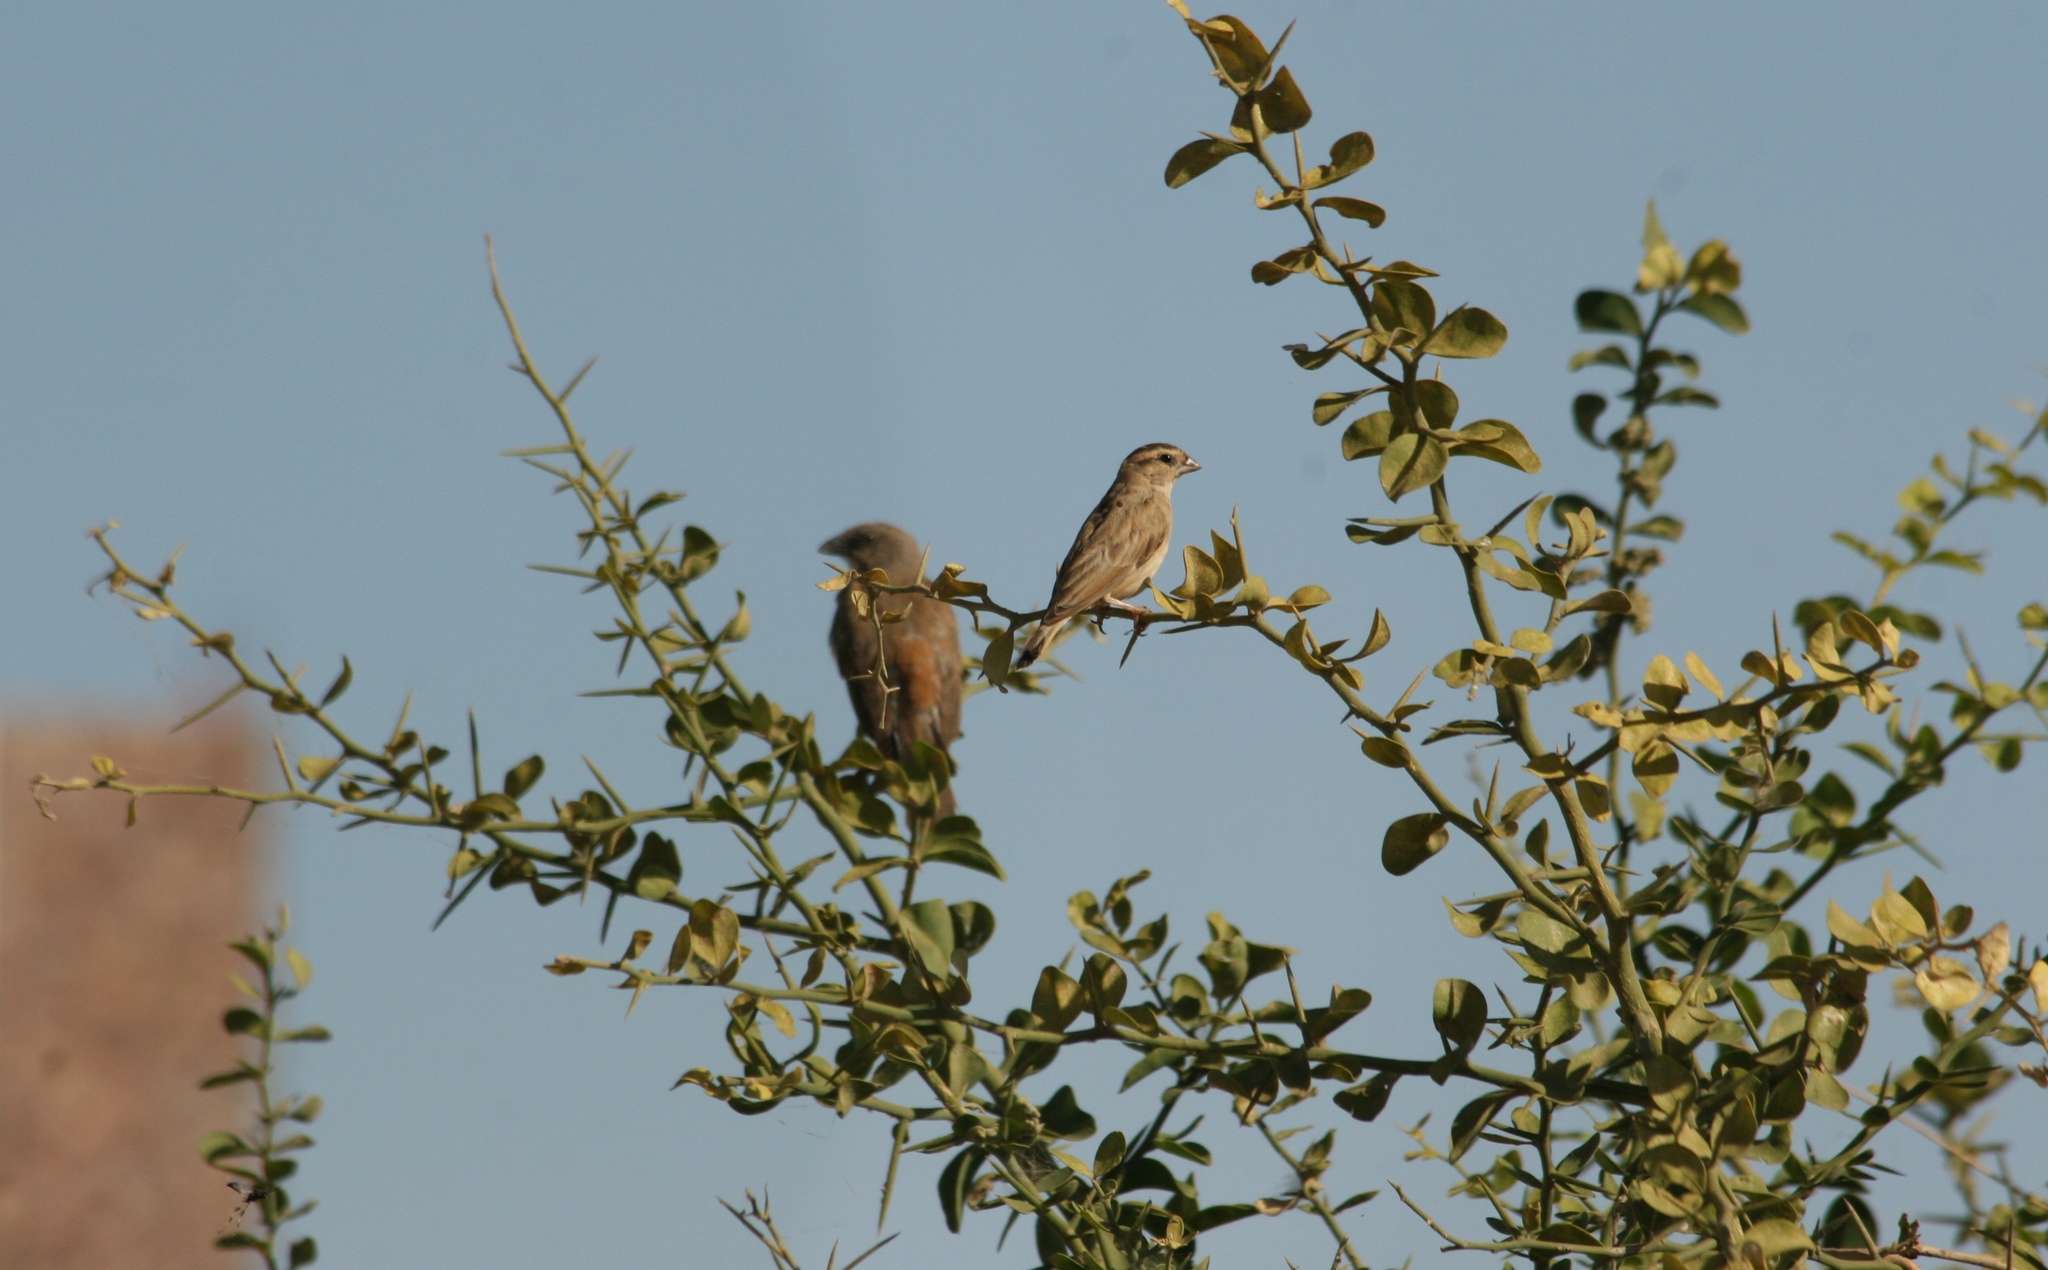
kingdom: Animalia
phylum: Chordata
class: Aves
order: Passeriformes
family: Passeridae
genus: Passer
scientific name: Passer griseus
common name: Northern grey-headed sparrow
